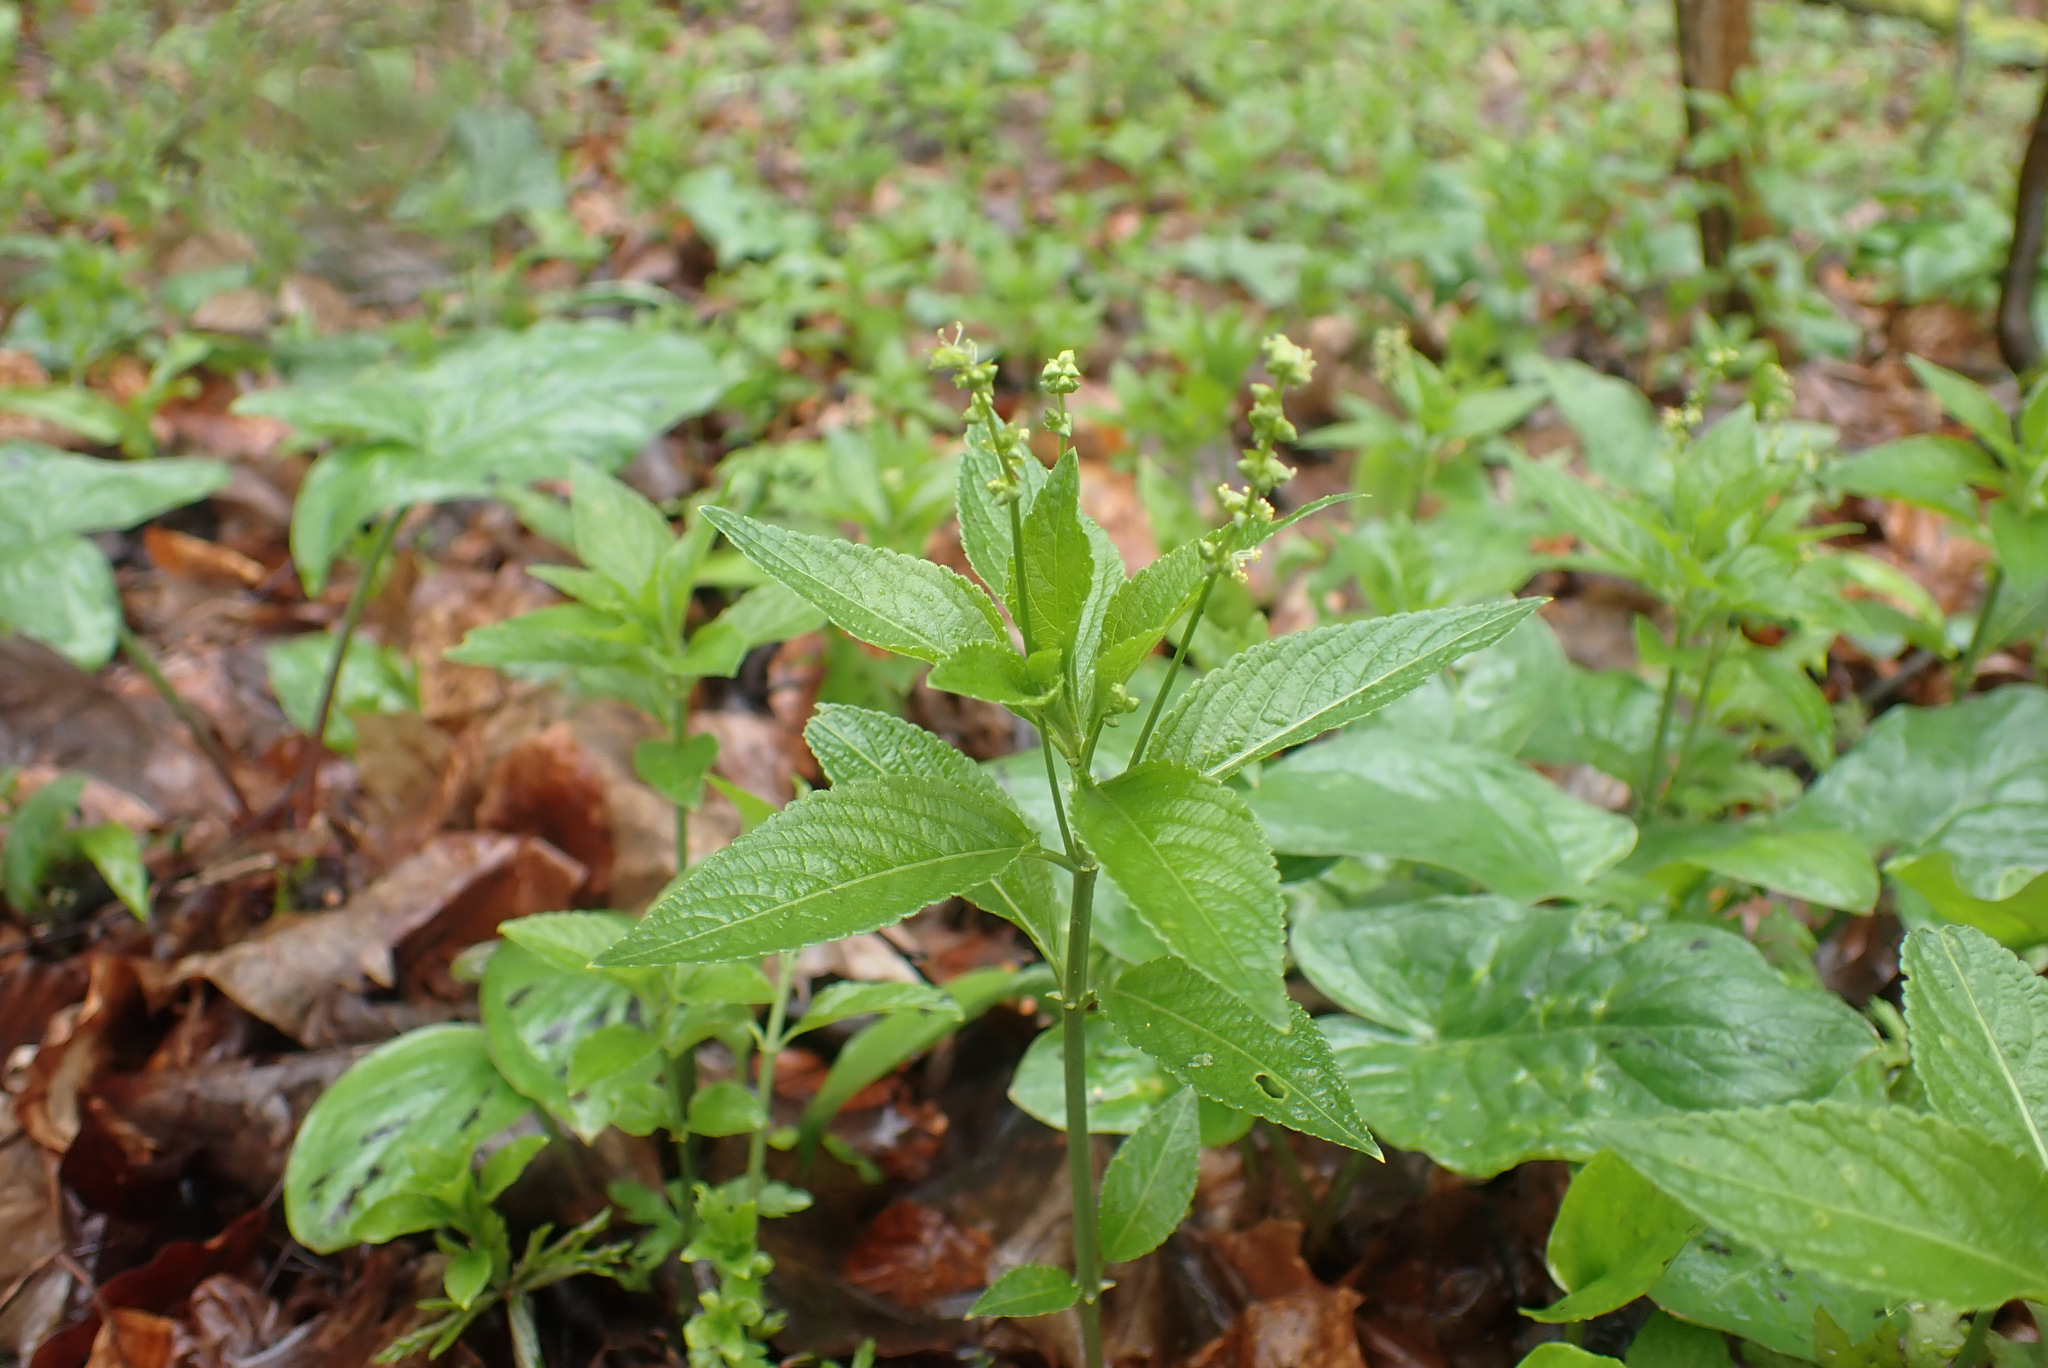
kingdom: Plantae
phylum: Tracheophyta
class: Magnoliopsida
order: Malpighiales
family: Euphorbiaceae
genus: Mercurialis
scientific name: Mercurialis perennis
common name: Dog mercury
